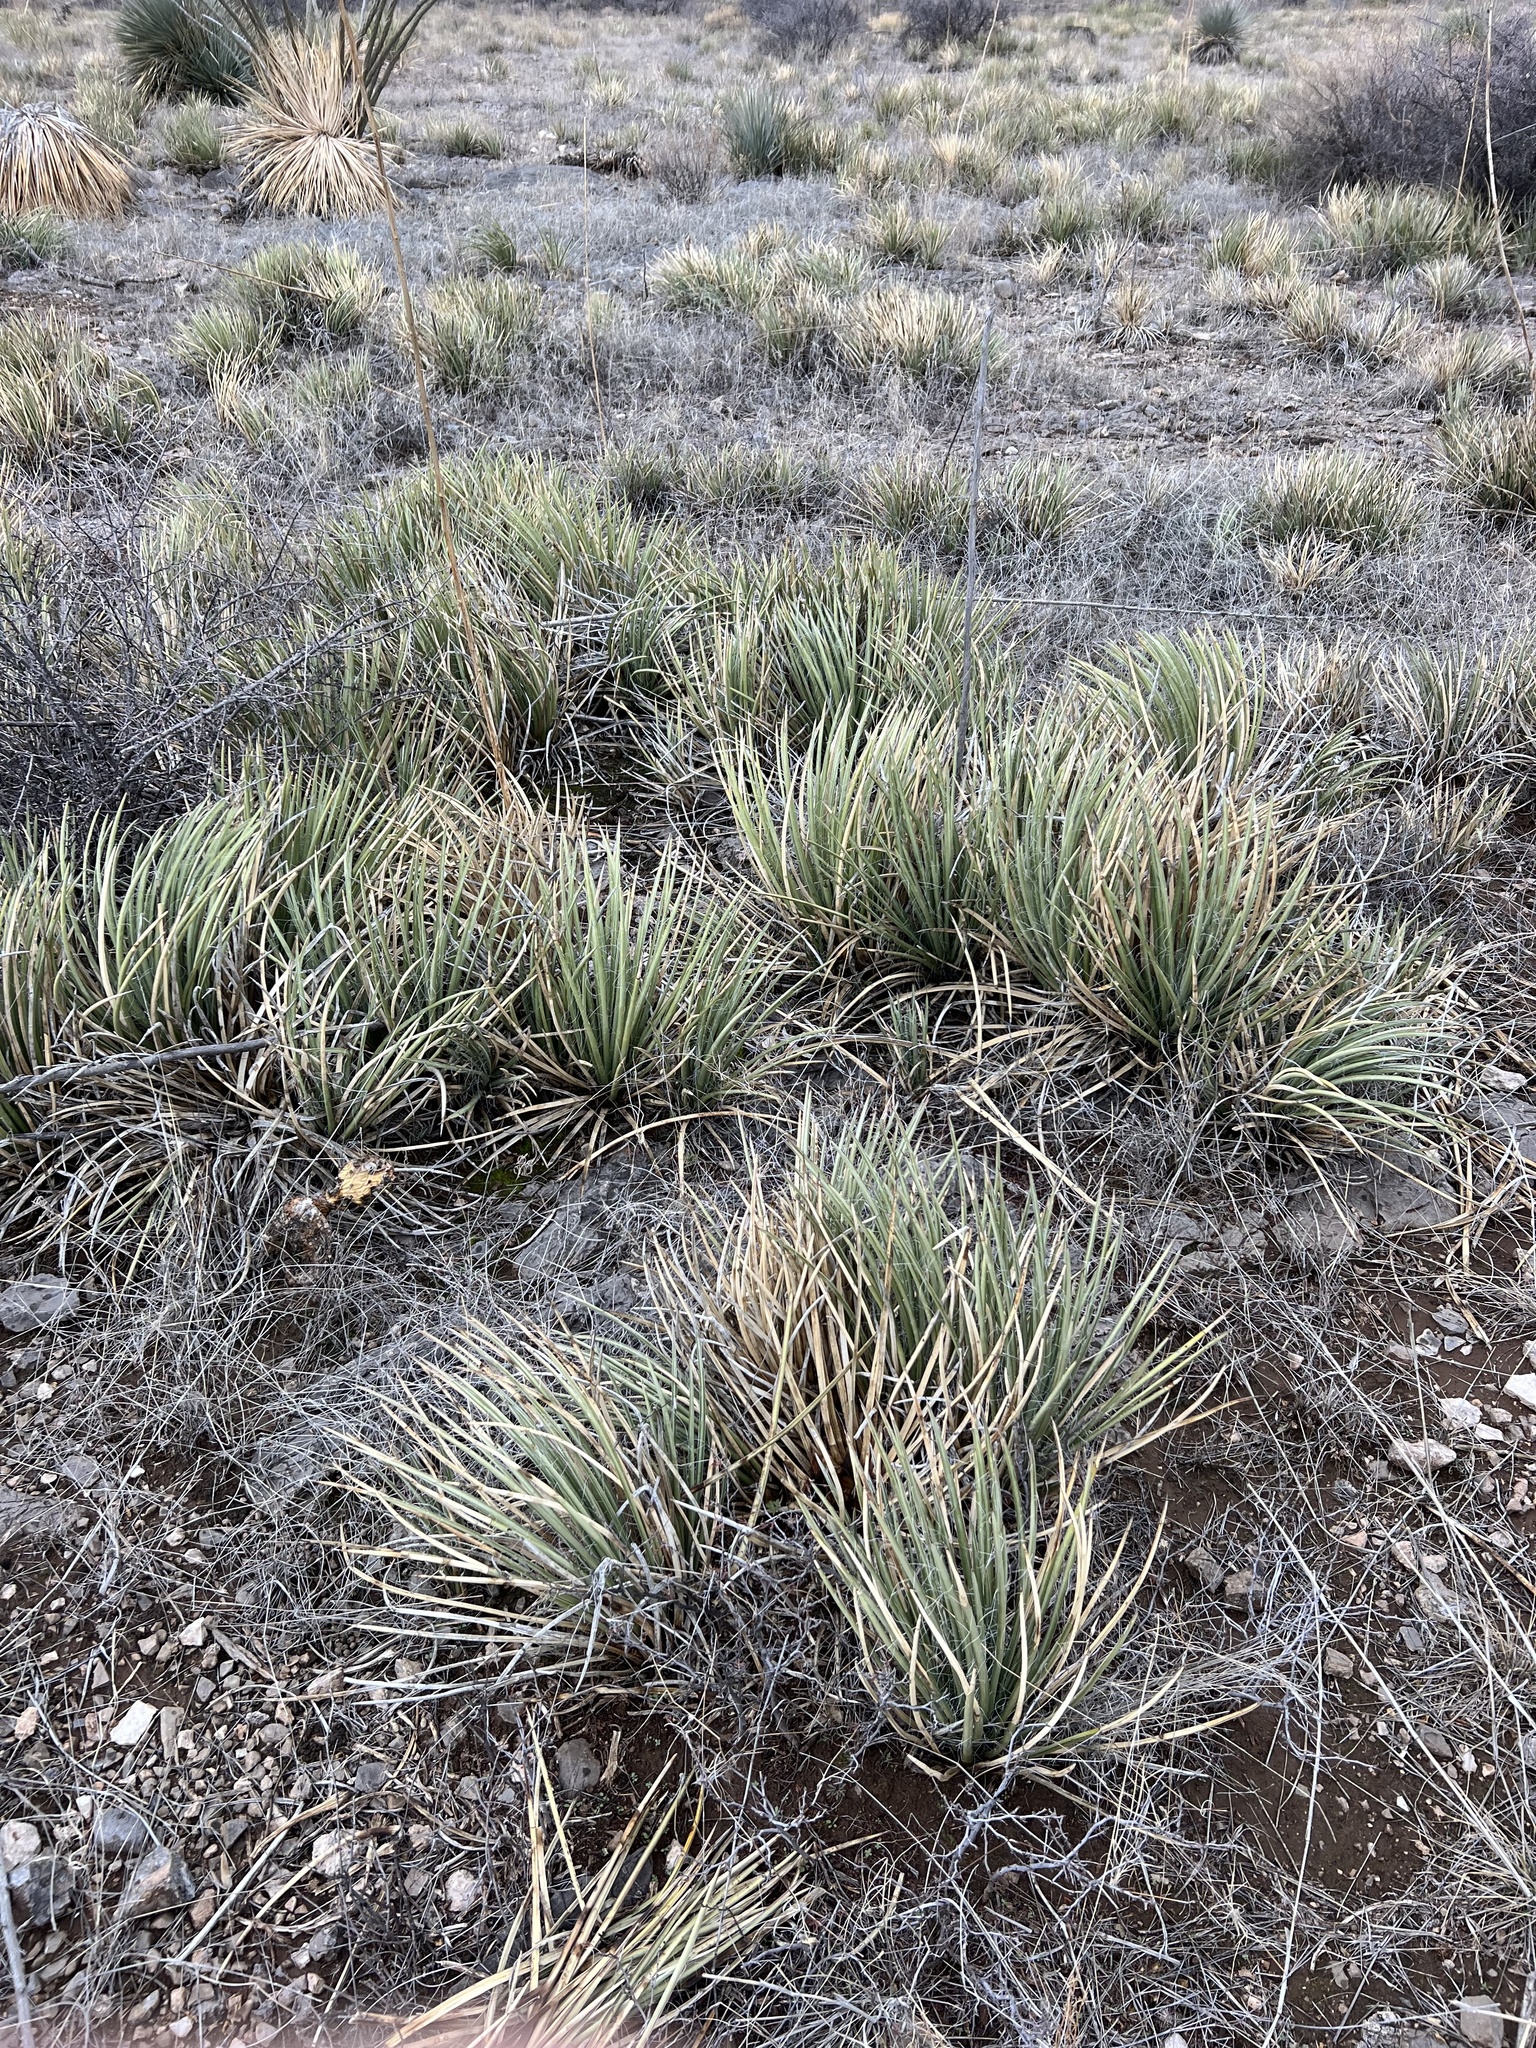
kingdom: Plantae
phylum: Tracheophyta
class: Liliopsida
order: Asparagales
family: Asparagaceae
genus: Agave
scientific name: Agave schottii
